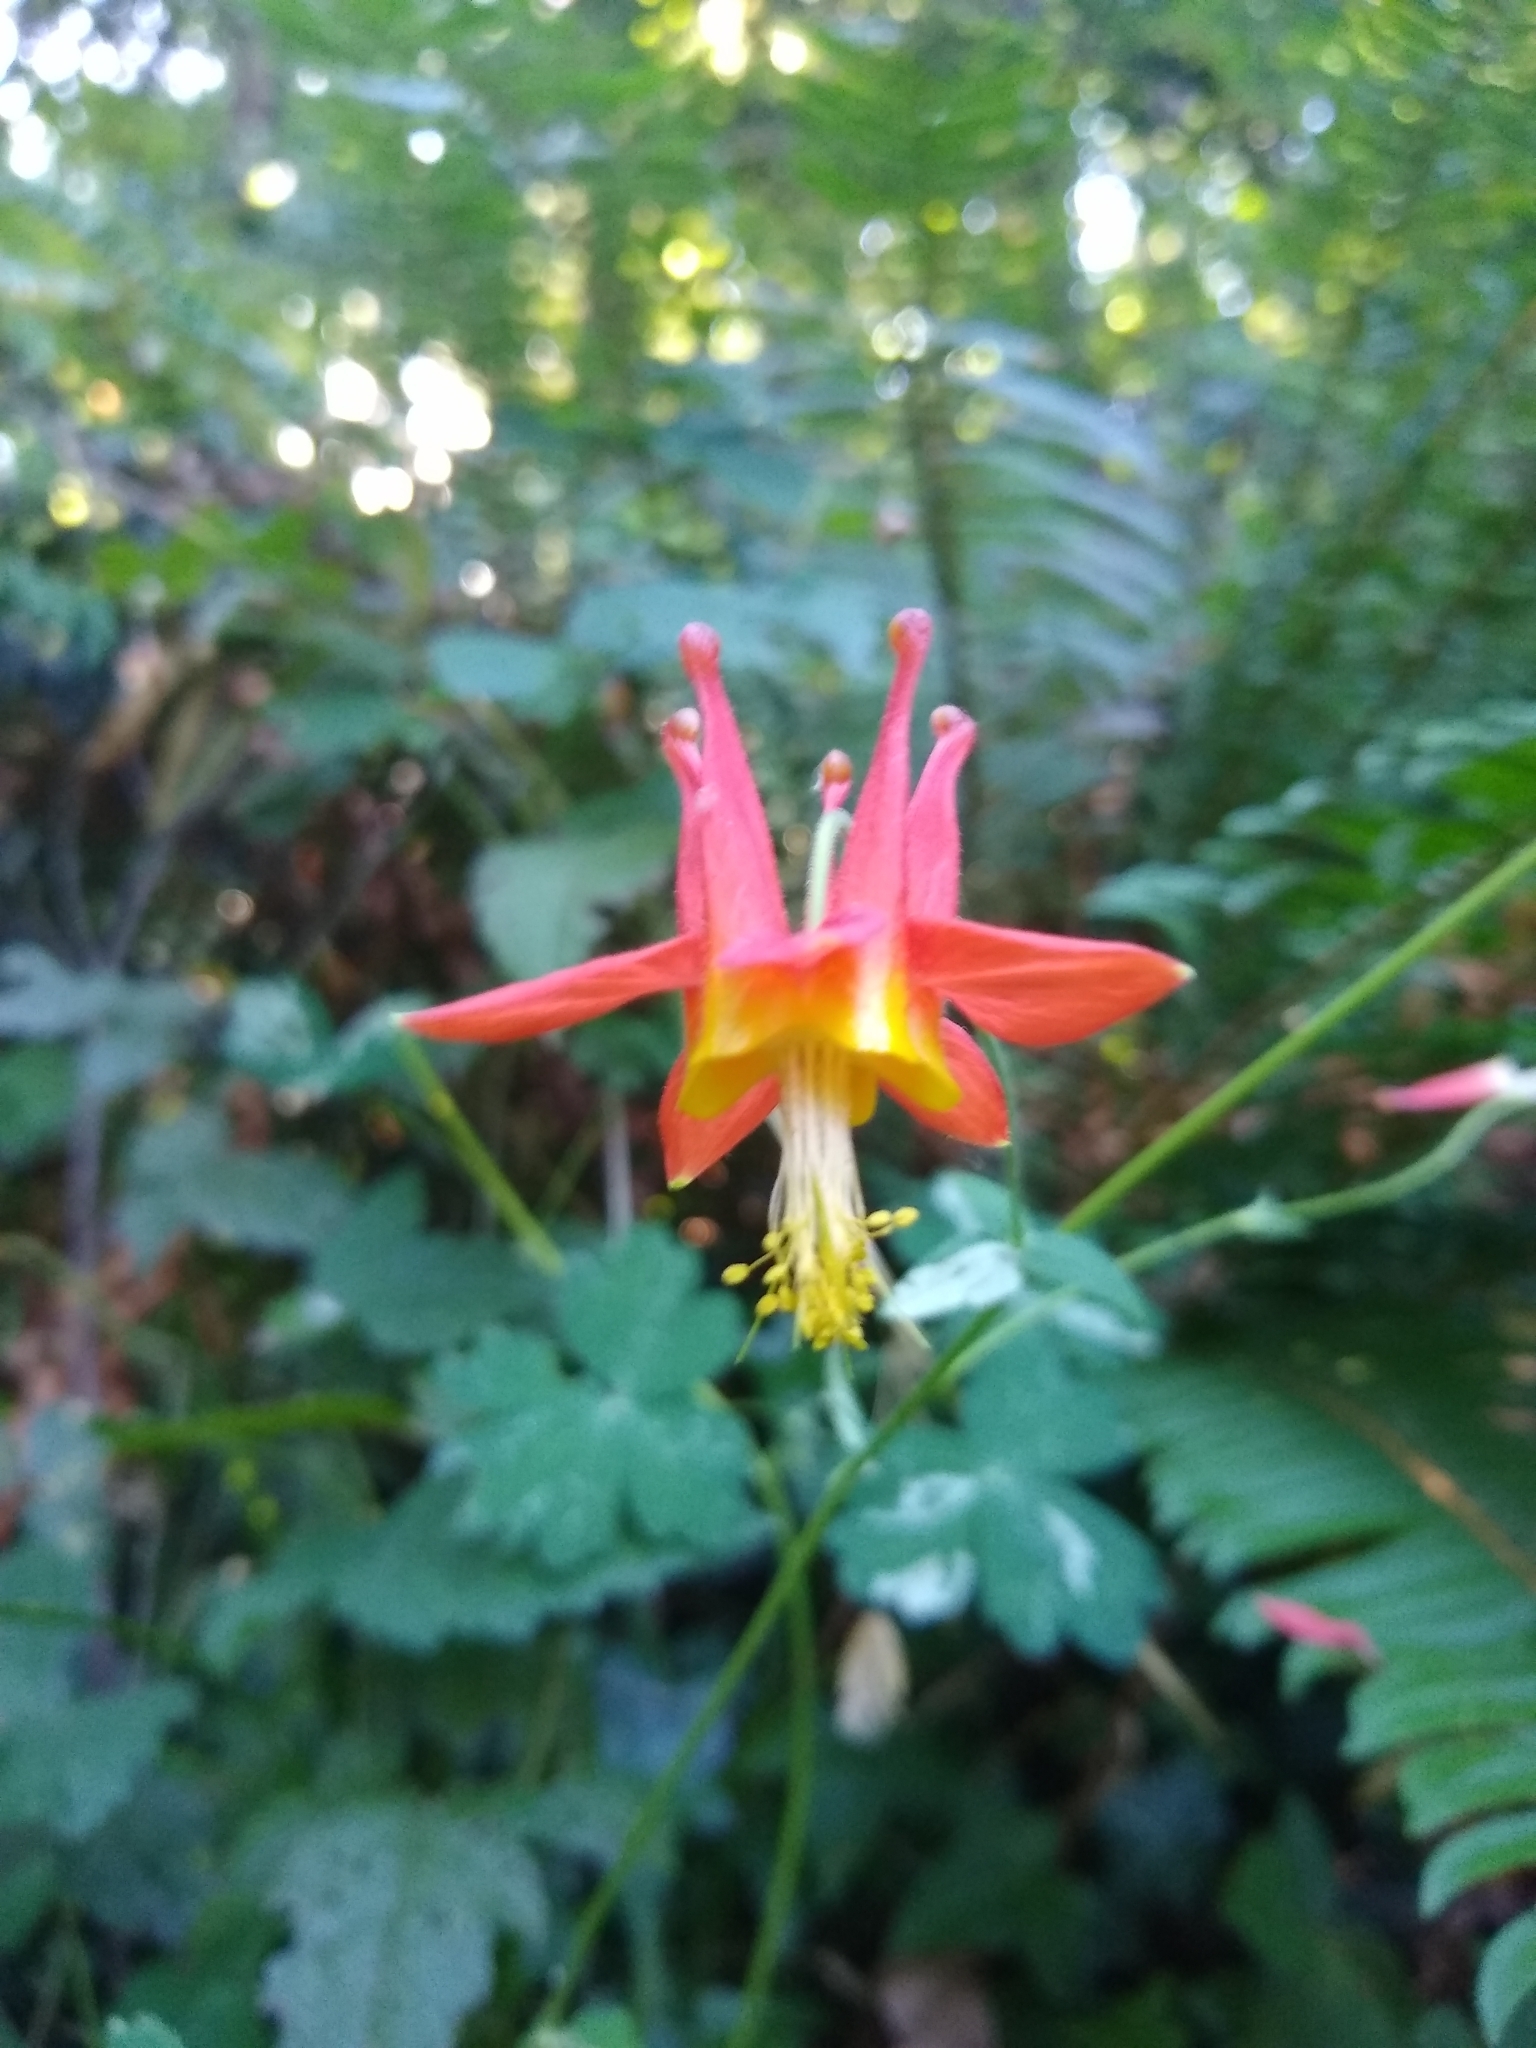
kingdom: Plantae
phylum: Tracheophyta
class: Magnoliopsida
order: Ranunculales
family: Ranunculaceae
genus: Aquilegia
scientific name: Aquilegia formosa
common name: Sitka columbine
